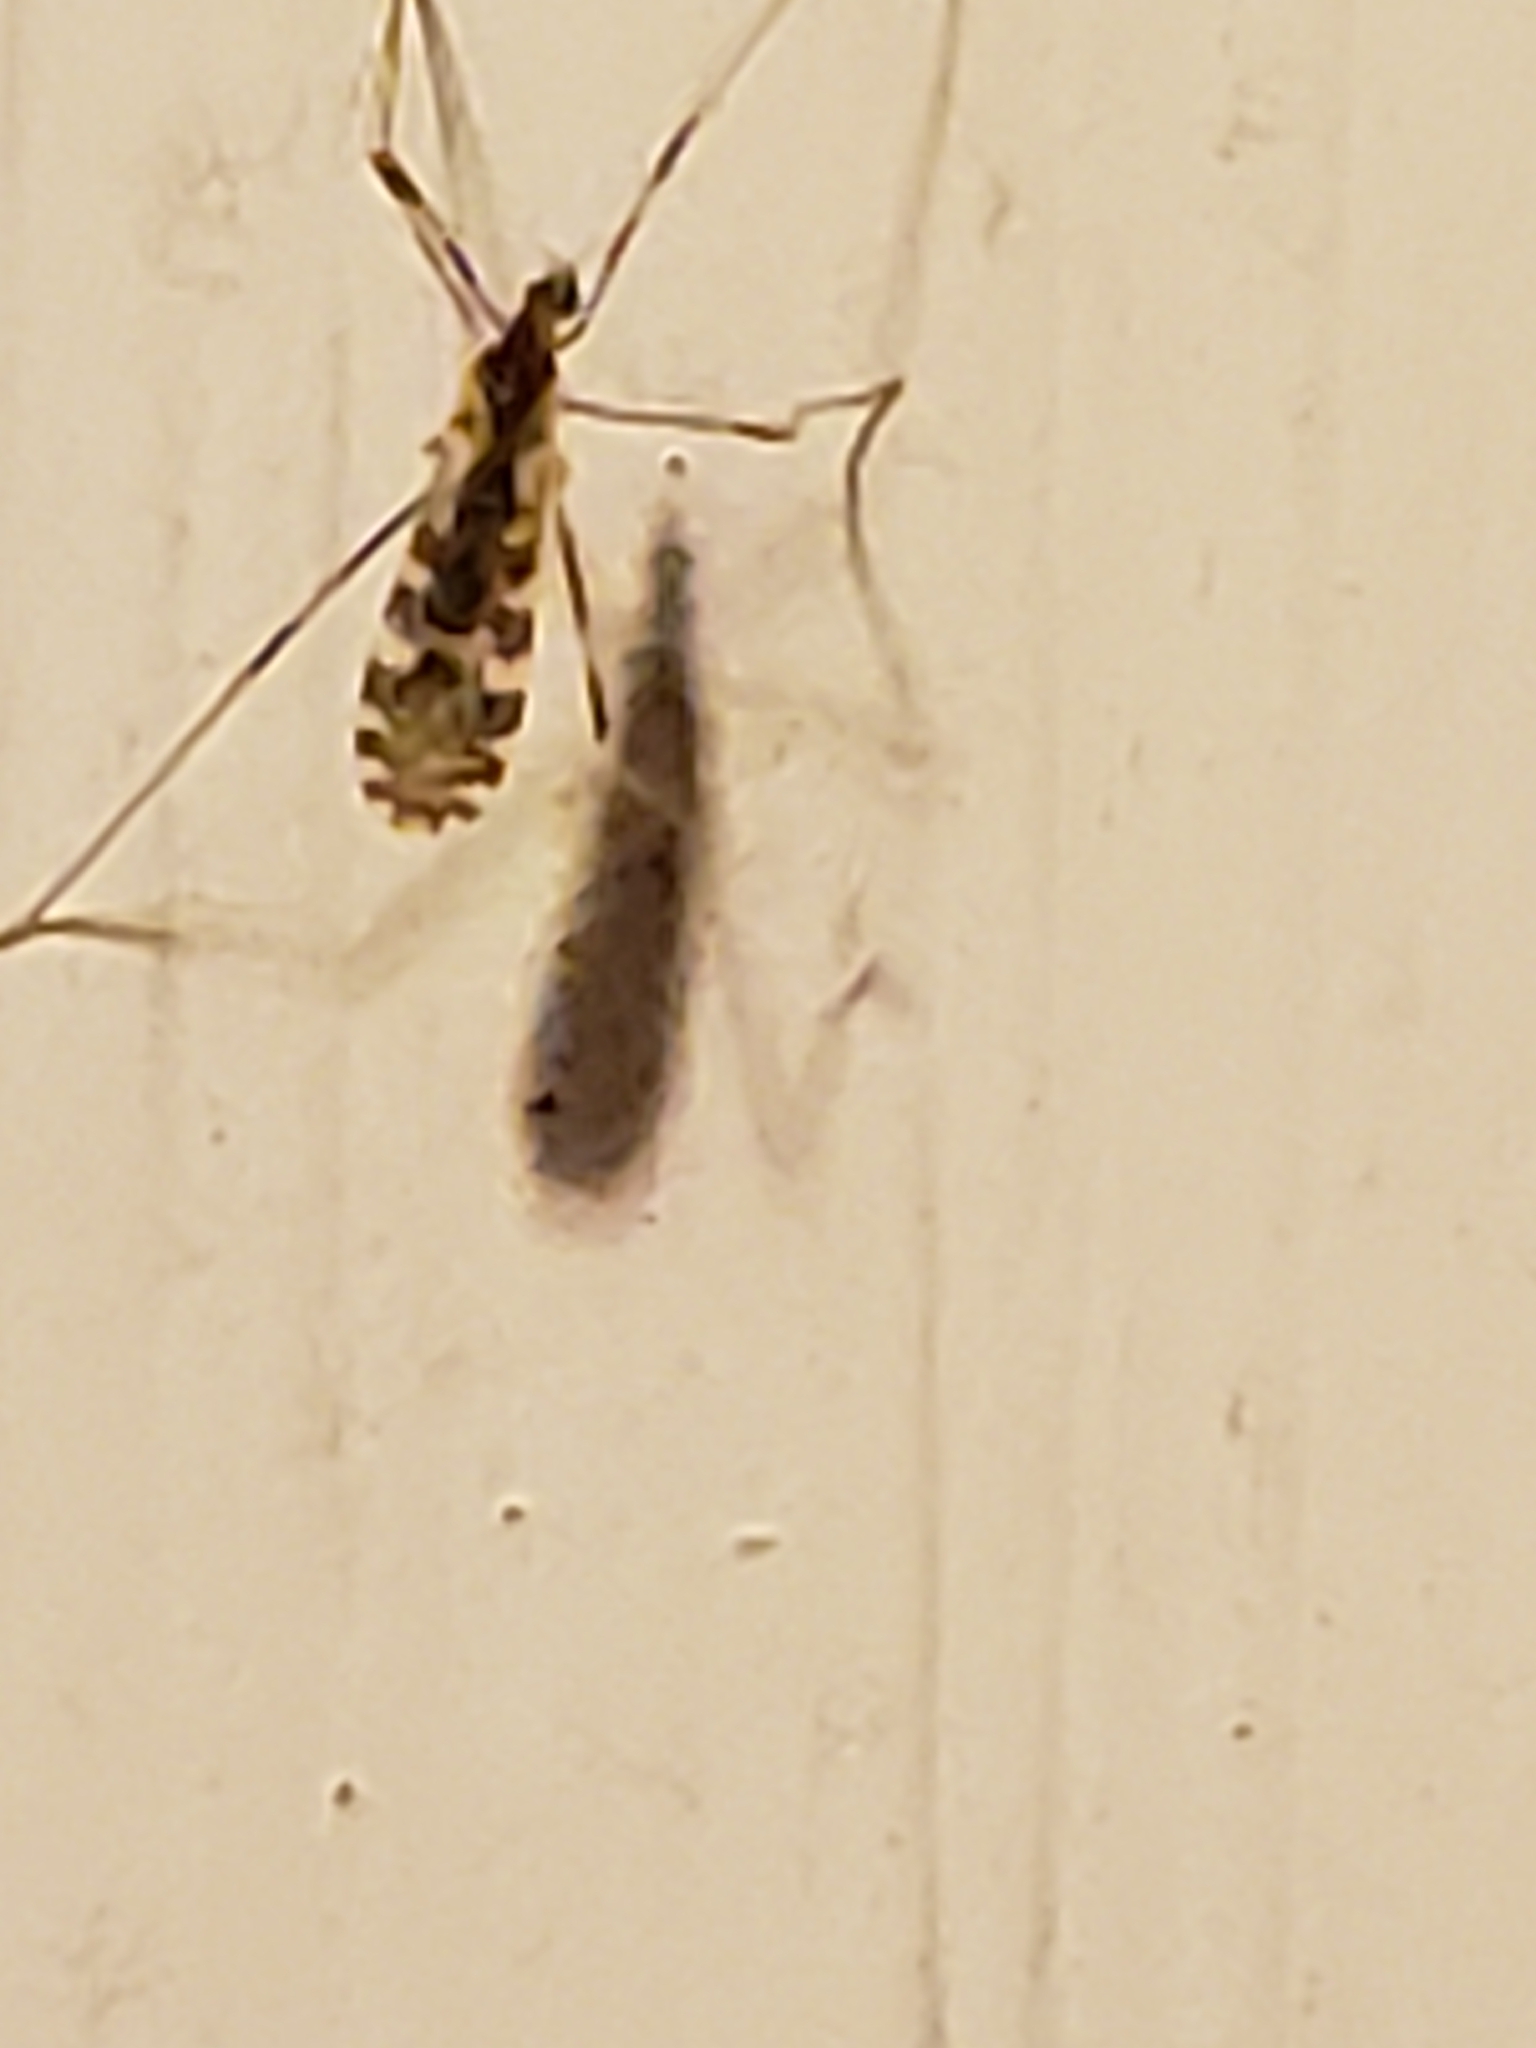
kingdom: Animalia
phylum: Arthropoda
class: Insecta
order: Diptera
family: Limoniidae
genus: Erioptera
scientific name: Erioptera caliptera
